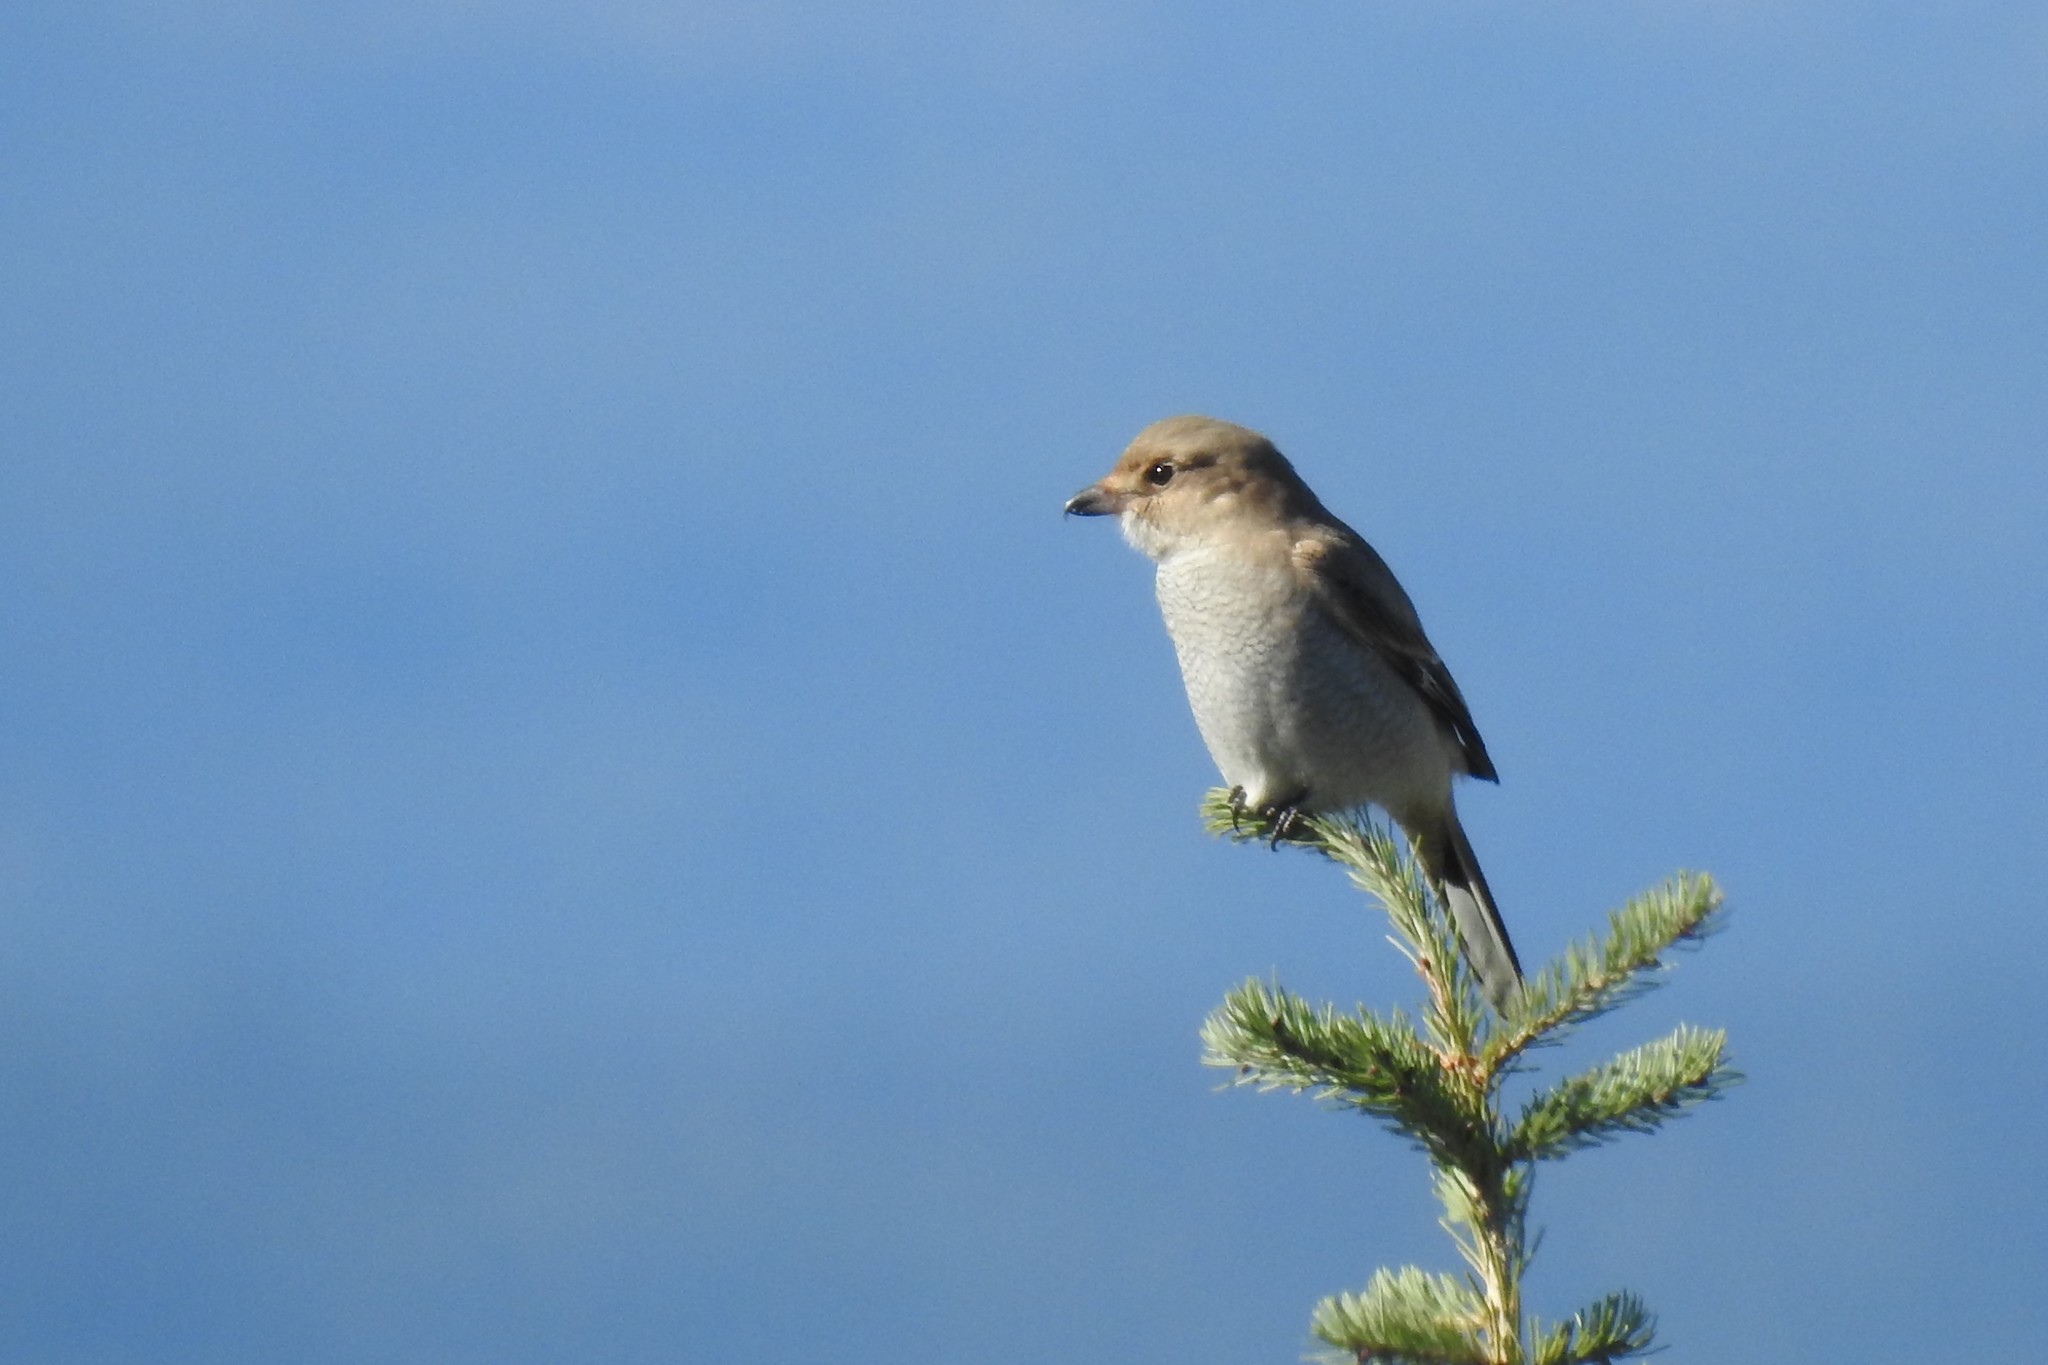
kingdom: Animalia
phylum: Chordata
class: Aves
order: Passeriformes
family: Laniidae
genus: Lanius
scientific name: Lanius borealis
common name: Northern shrike
